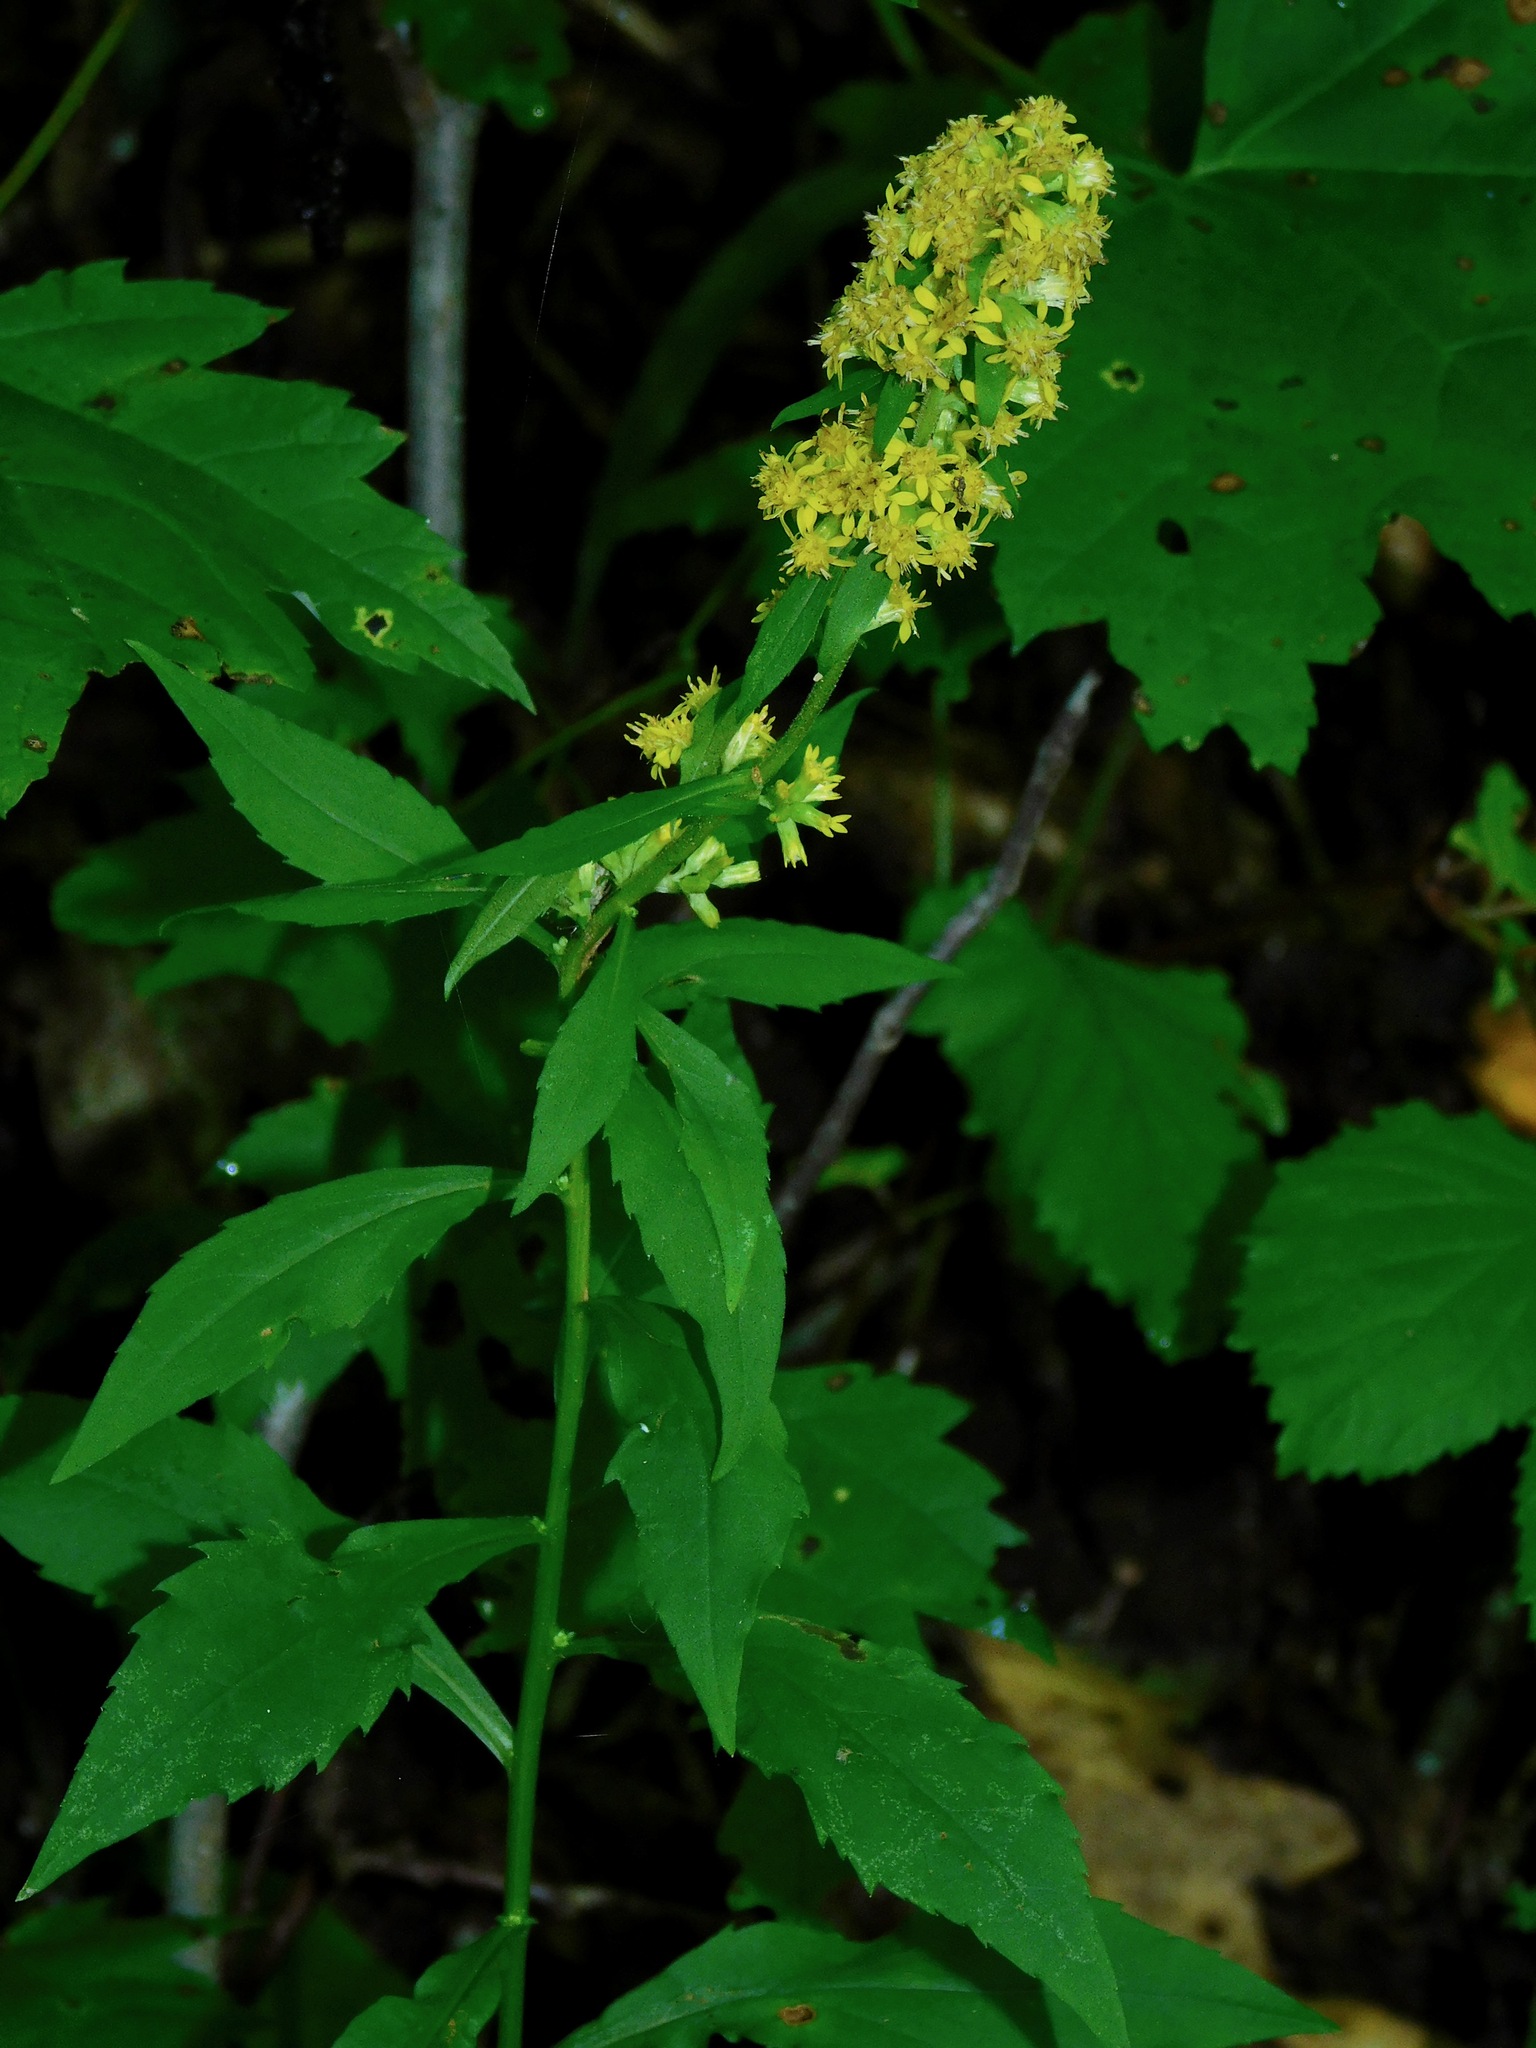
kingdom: Plantae
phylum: Tracheophyta
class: Magnoliopsida
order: Asterales
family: Asteraceae
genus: Solidago
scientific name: Solidago flexicaulis
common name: Zig-zag goldenrod
